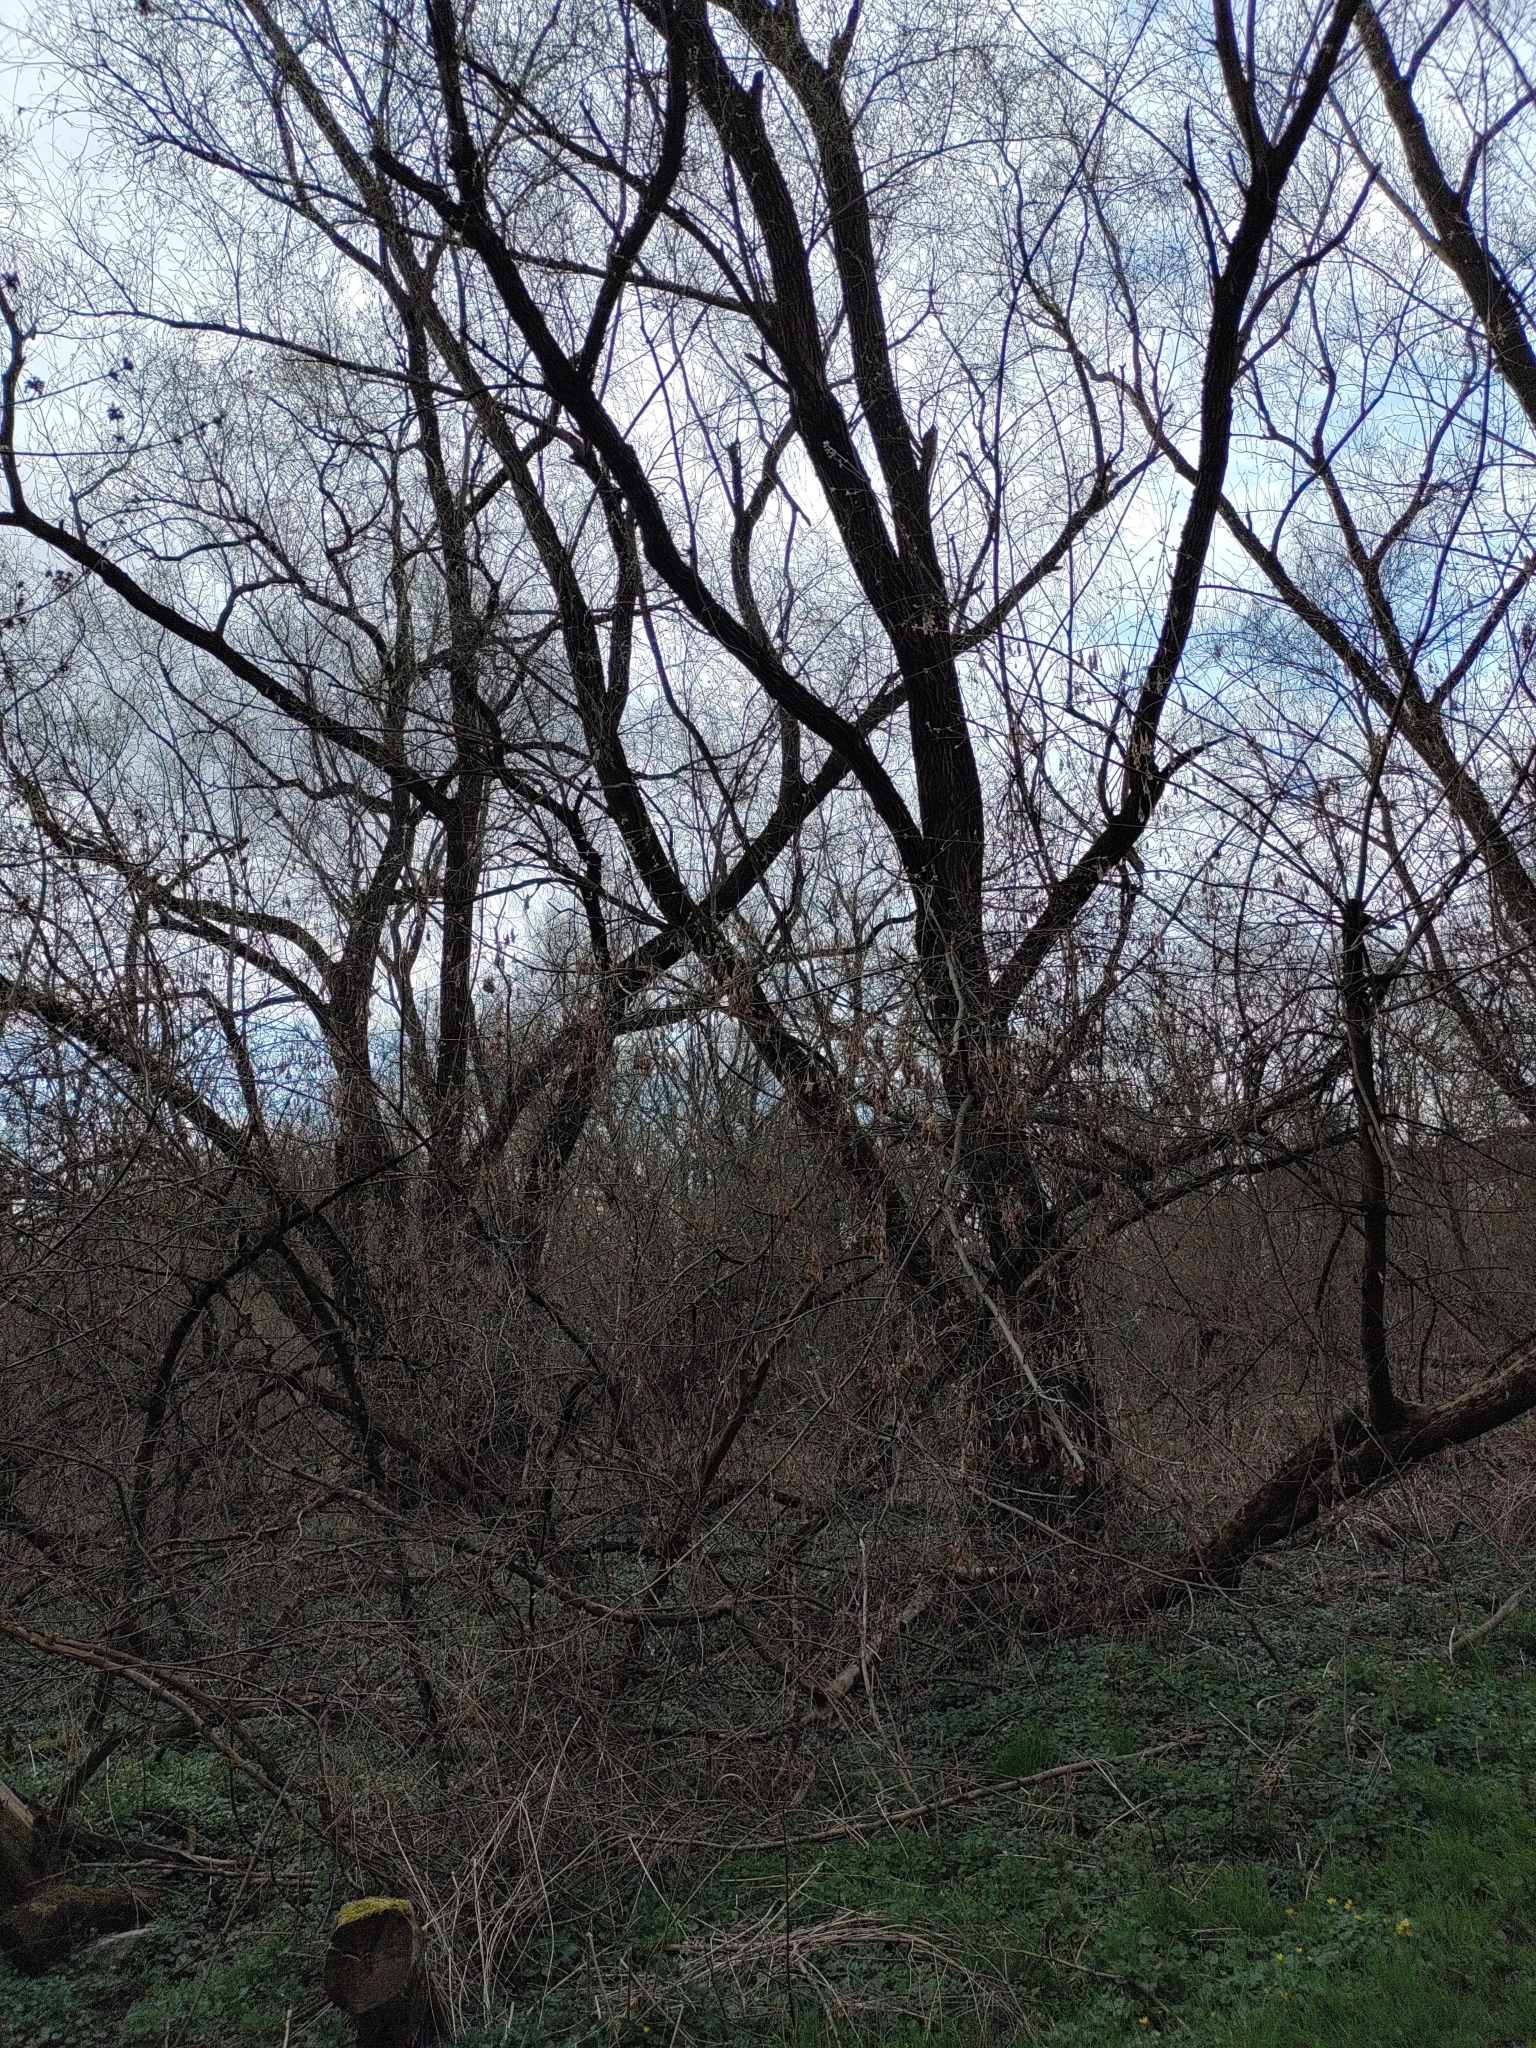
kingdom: Animalia
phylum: Chordata
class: Aves
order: Passeriformes
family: Turdidae
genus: Turdus
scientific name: Turdus merula
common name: Common blackbird
